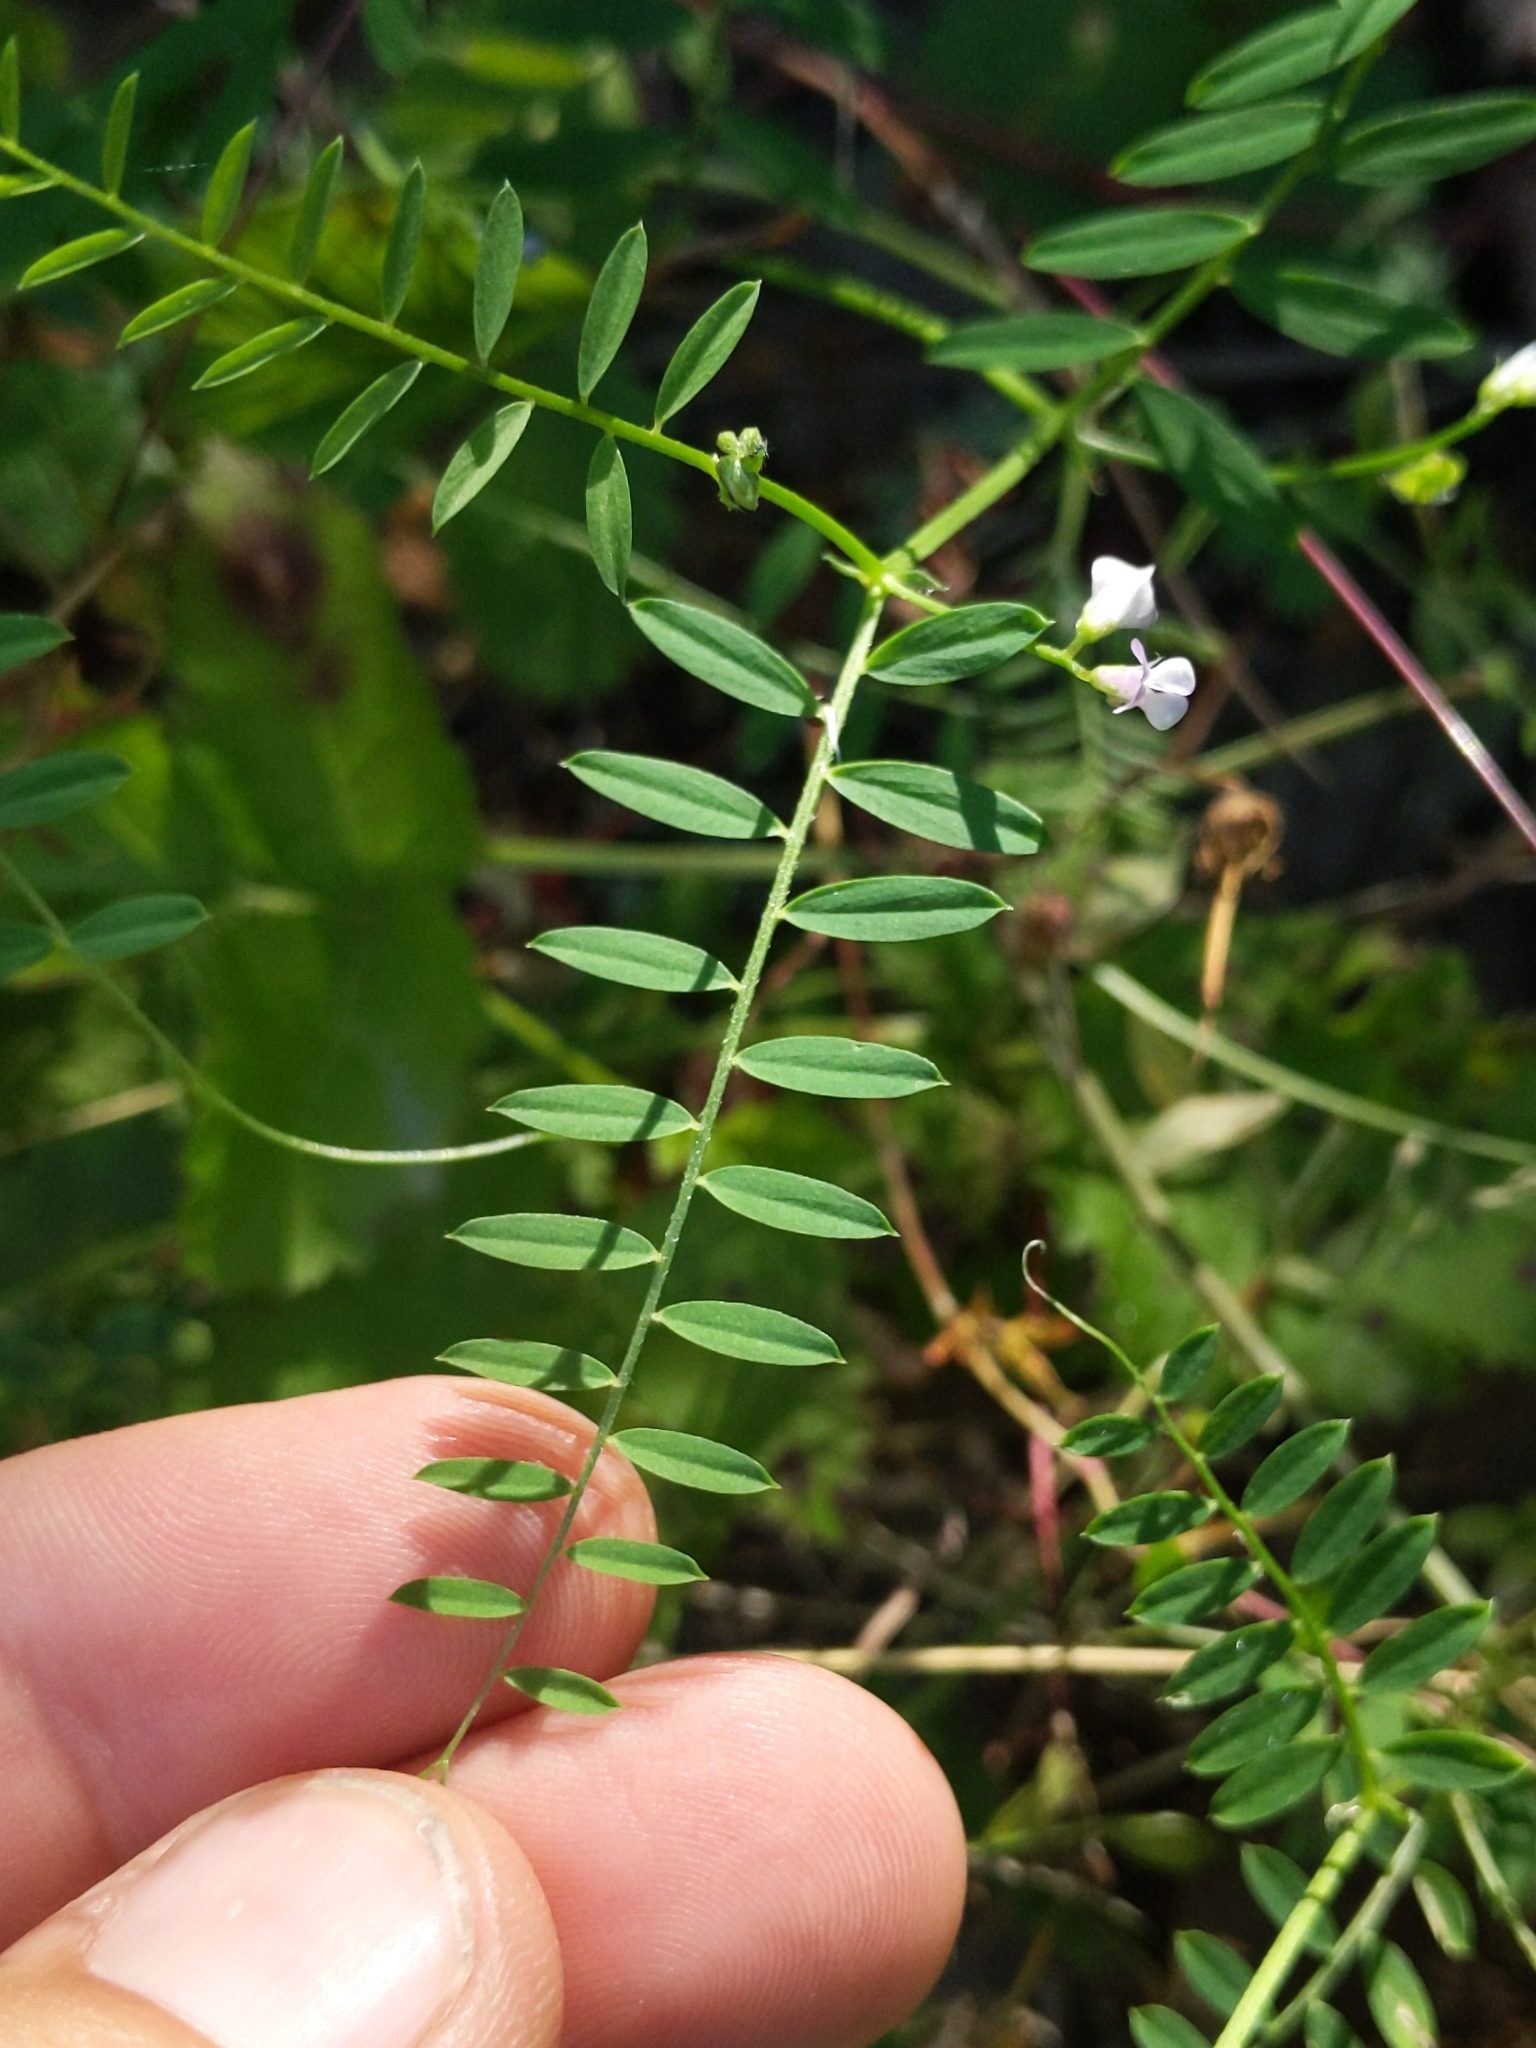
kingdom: Plantae
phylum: Tracheophyta
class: Magnoliopsida
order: Fabales
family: Fabaceae
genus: Vicia
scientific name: Vicia disperma
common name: European vetch
